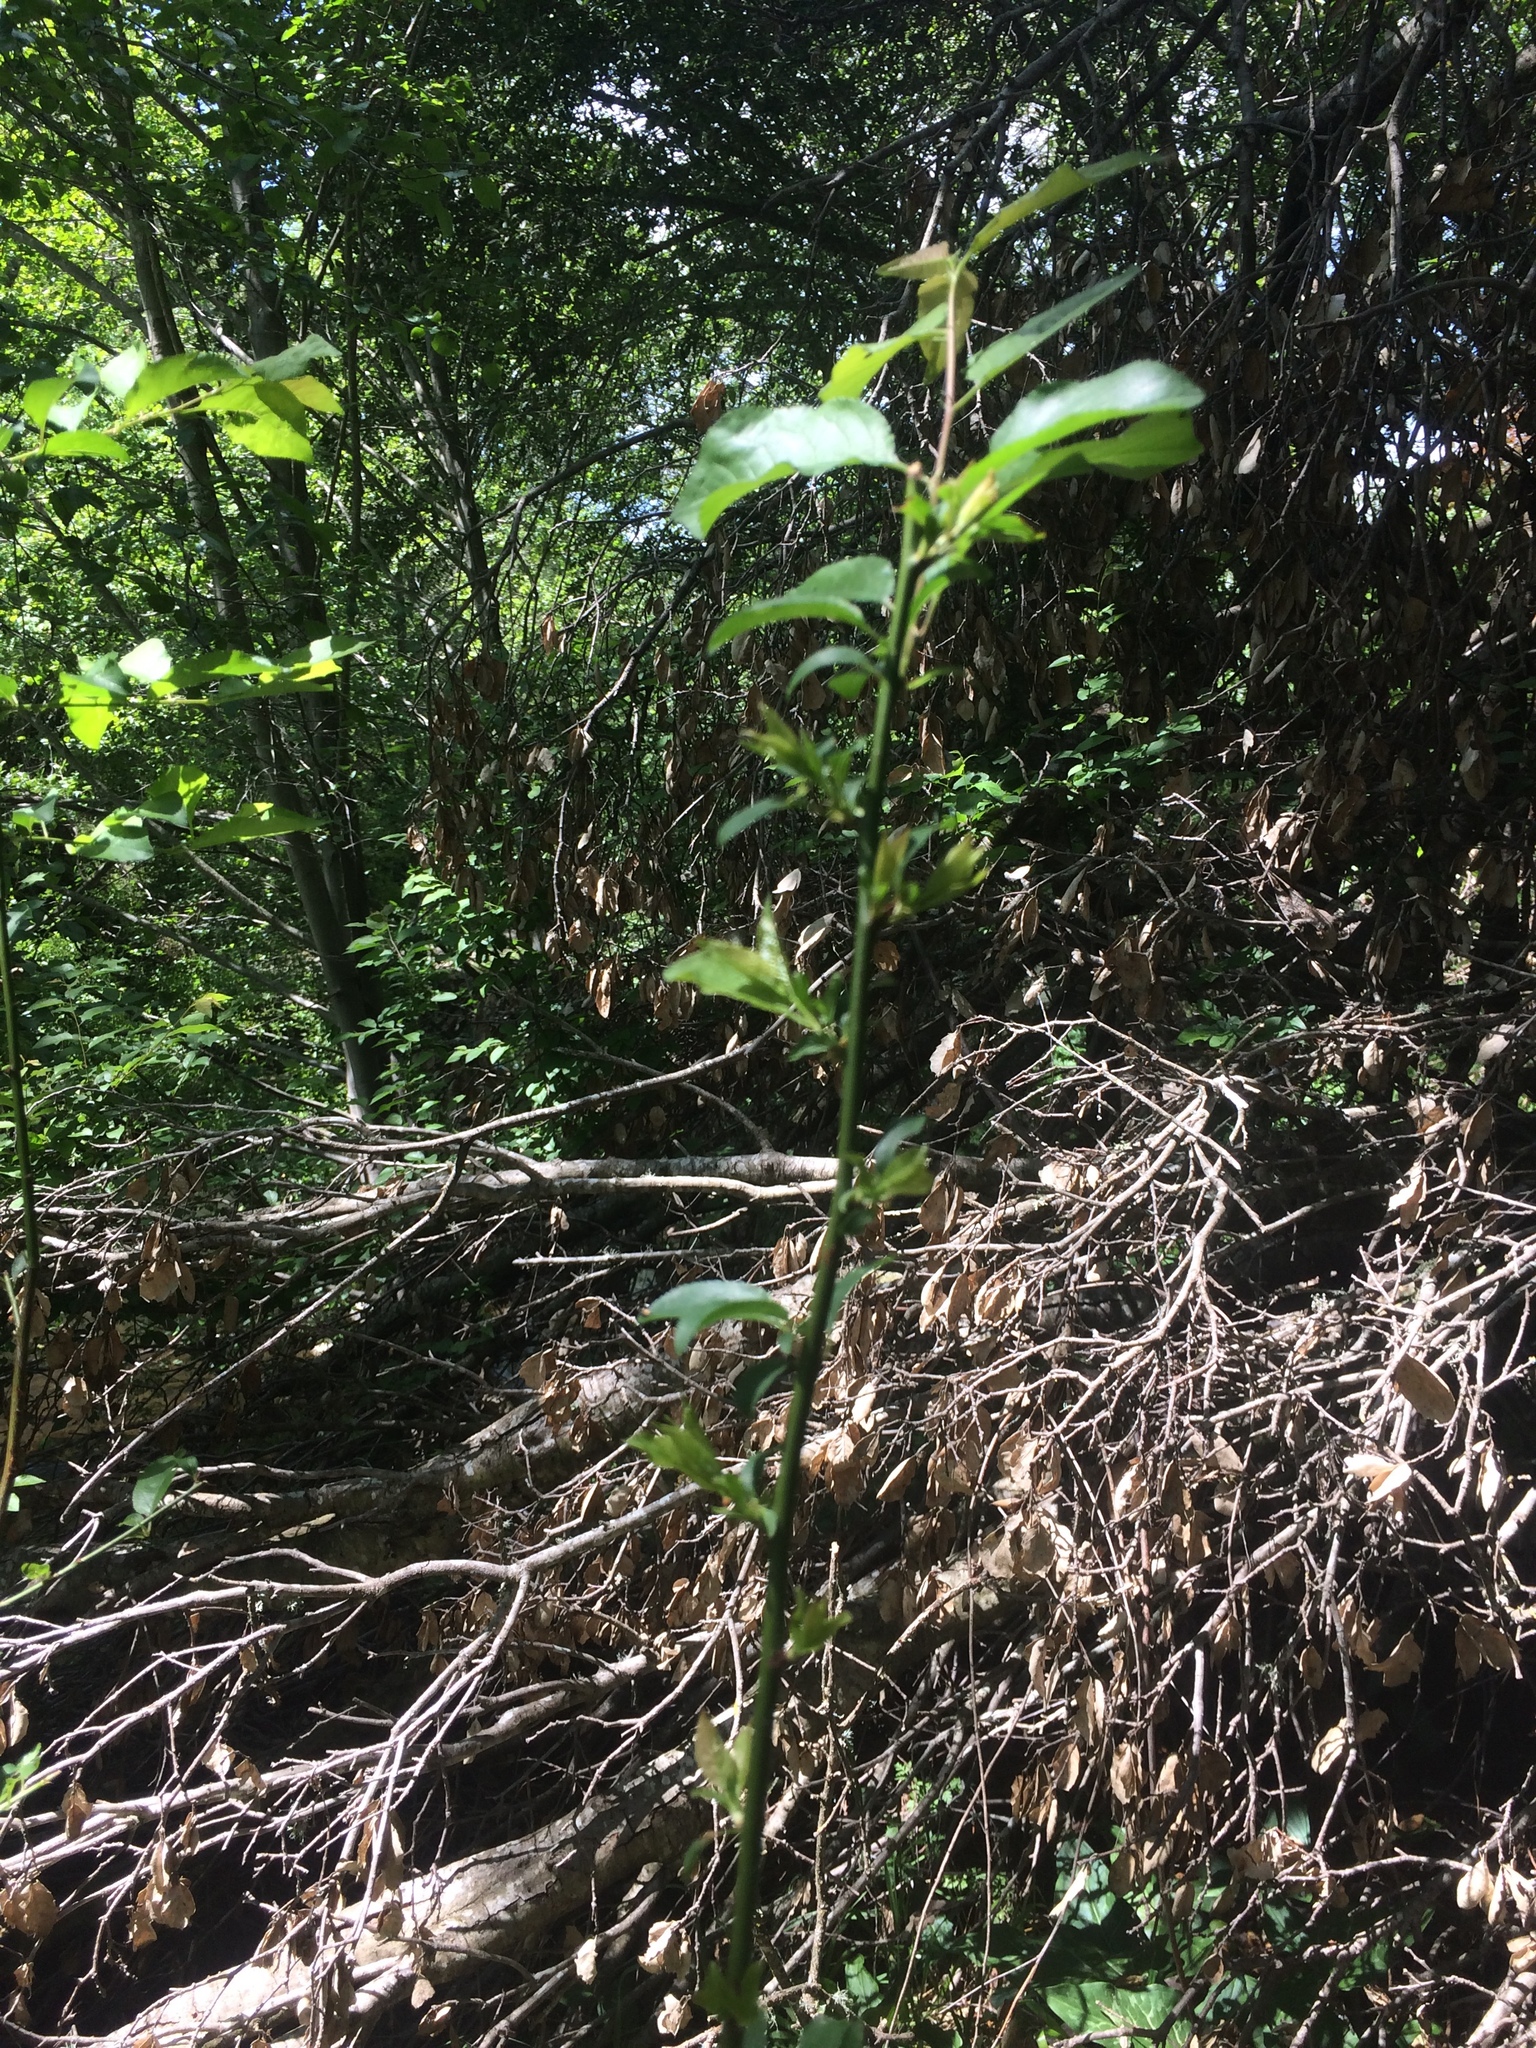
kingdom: Plantae
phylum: Tracheophyta
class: Magnoliopsida
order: Rosales
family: Rosaceae
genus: Prunus
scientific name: Prunus cerasifera
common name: Cherry plum
